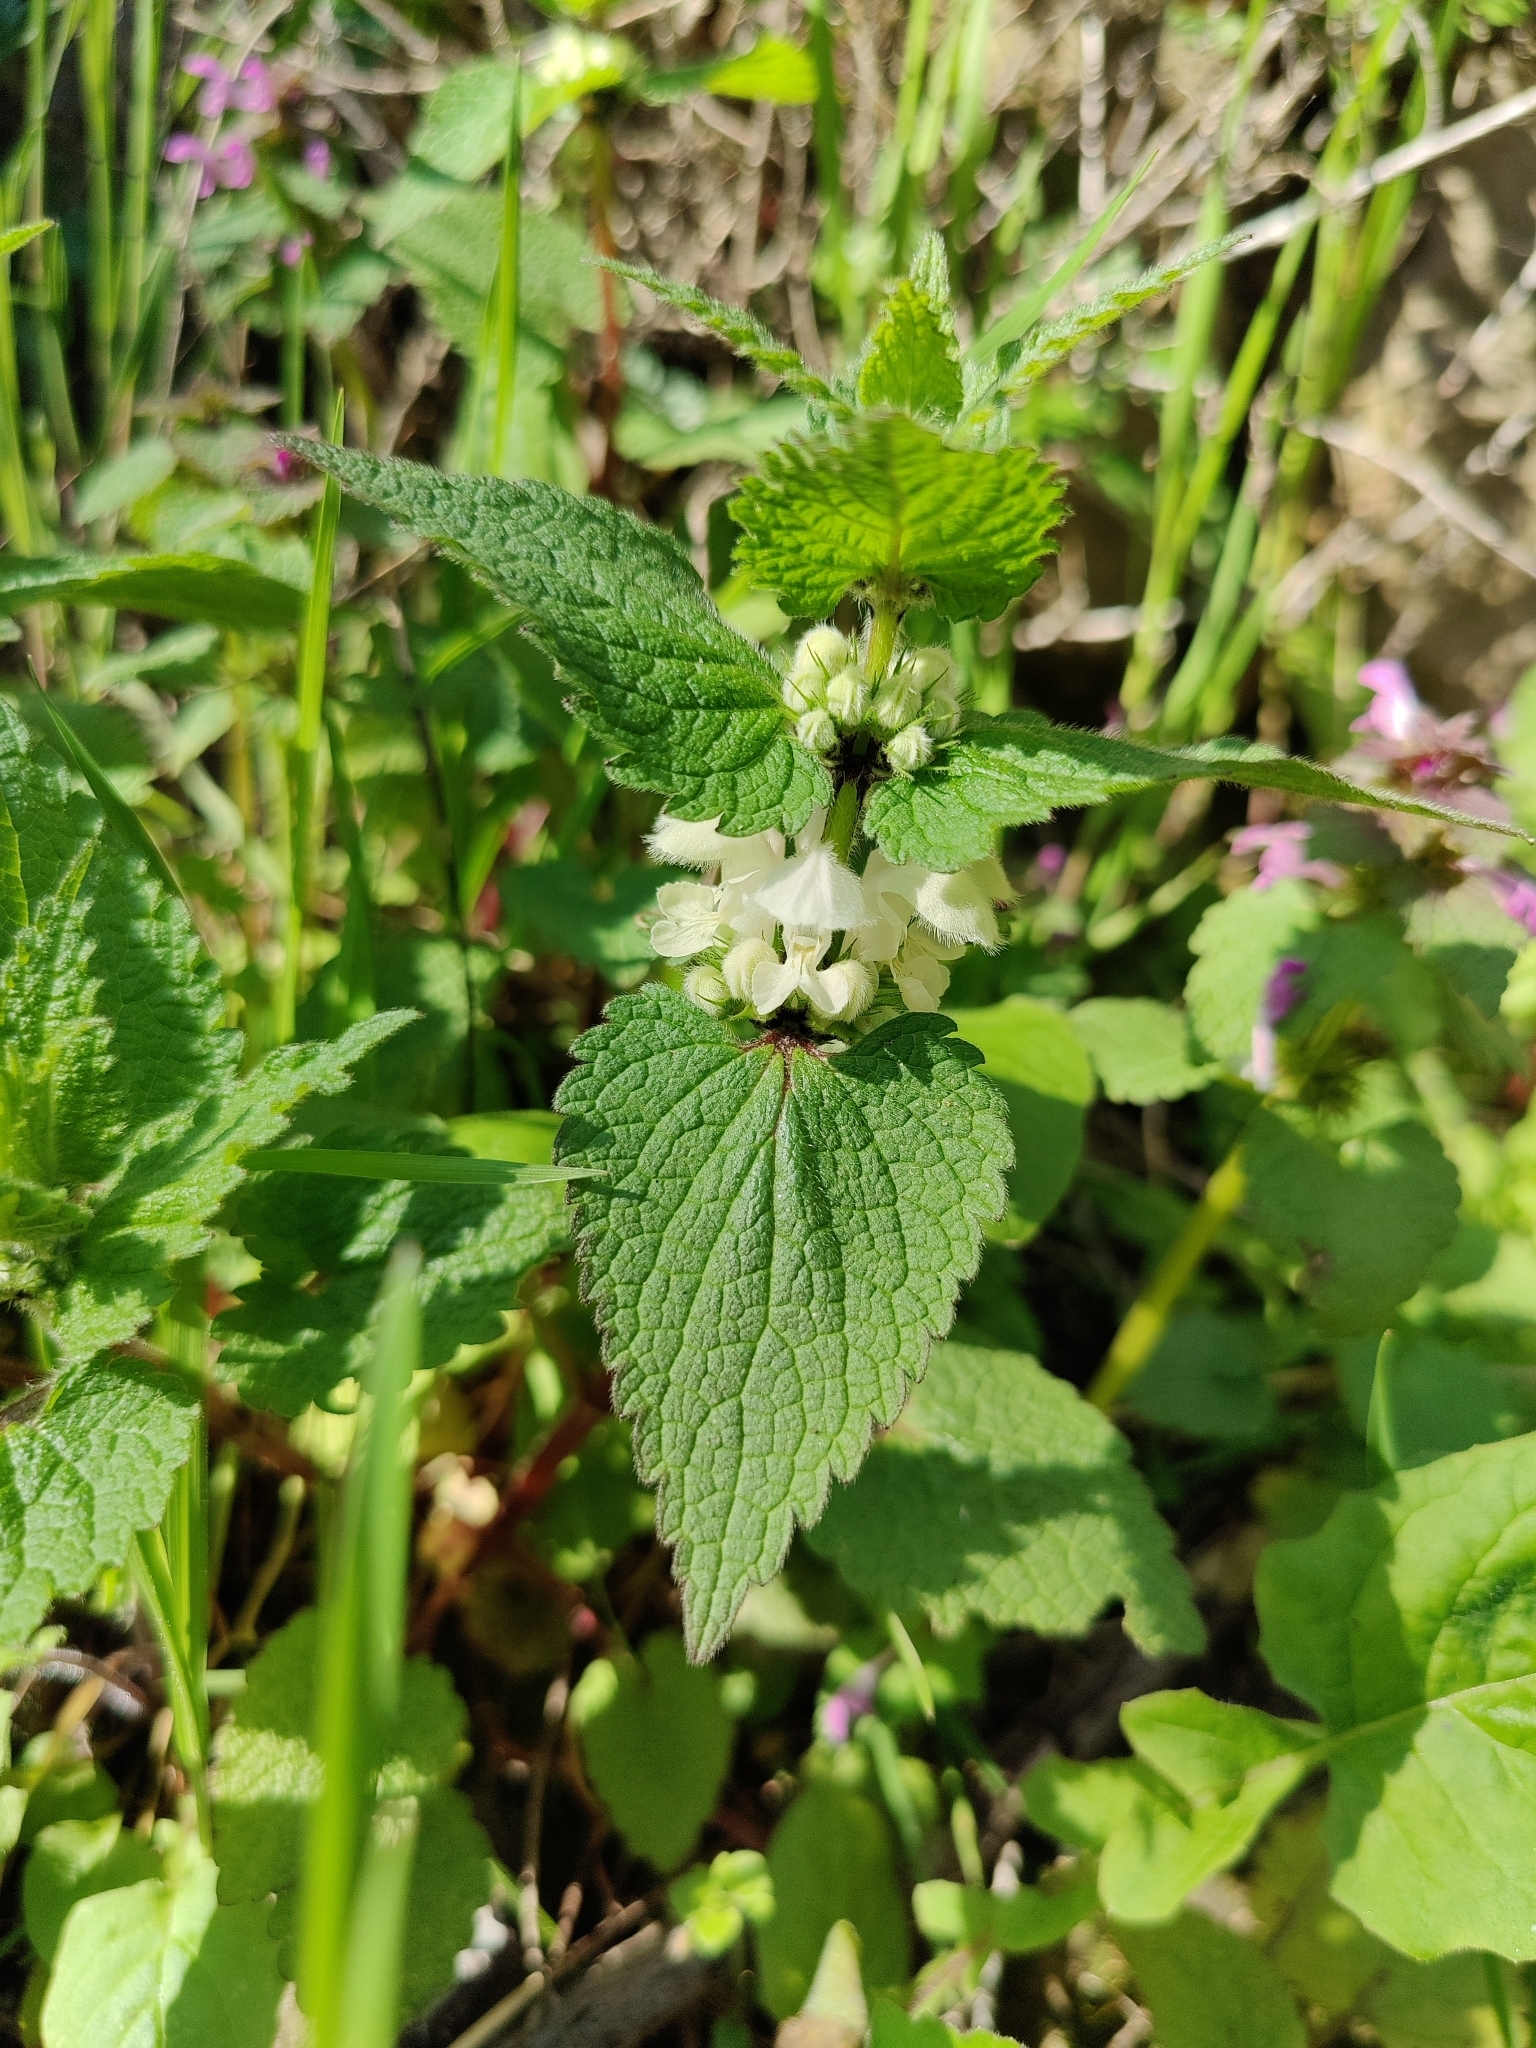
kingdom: Plantae
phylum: Tracheophyta
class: Magnoliopsida
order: Lamiales
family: Lamiaceae
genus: Lamium
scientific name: Lamium album
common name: White dead-nettle
